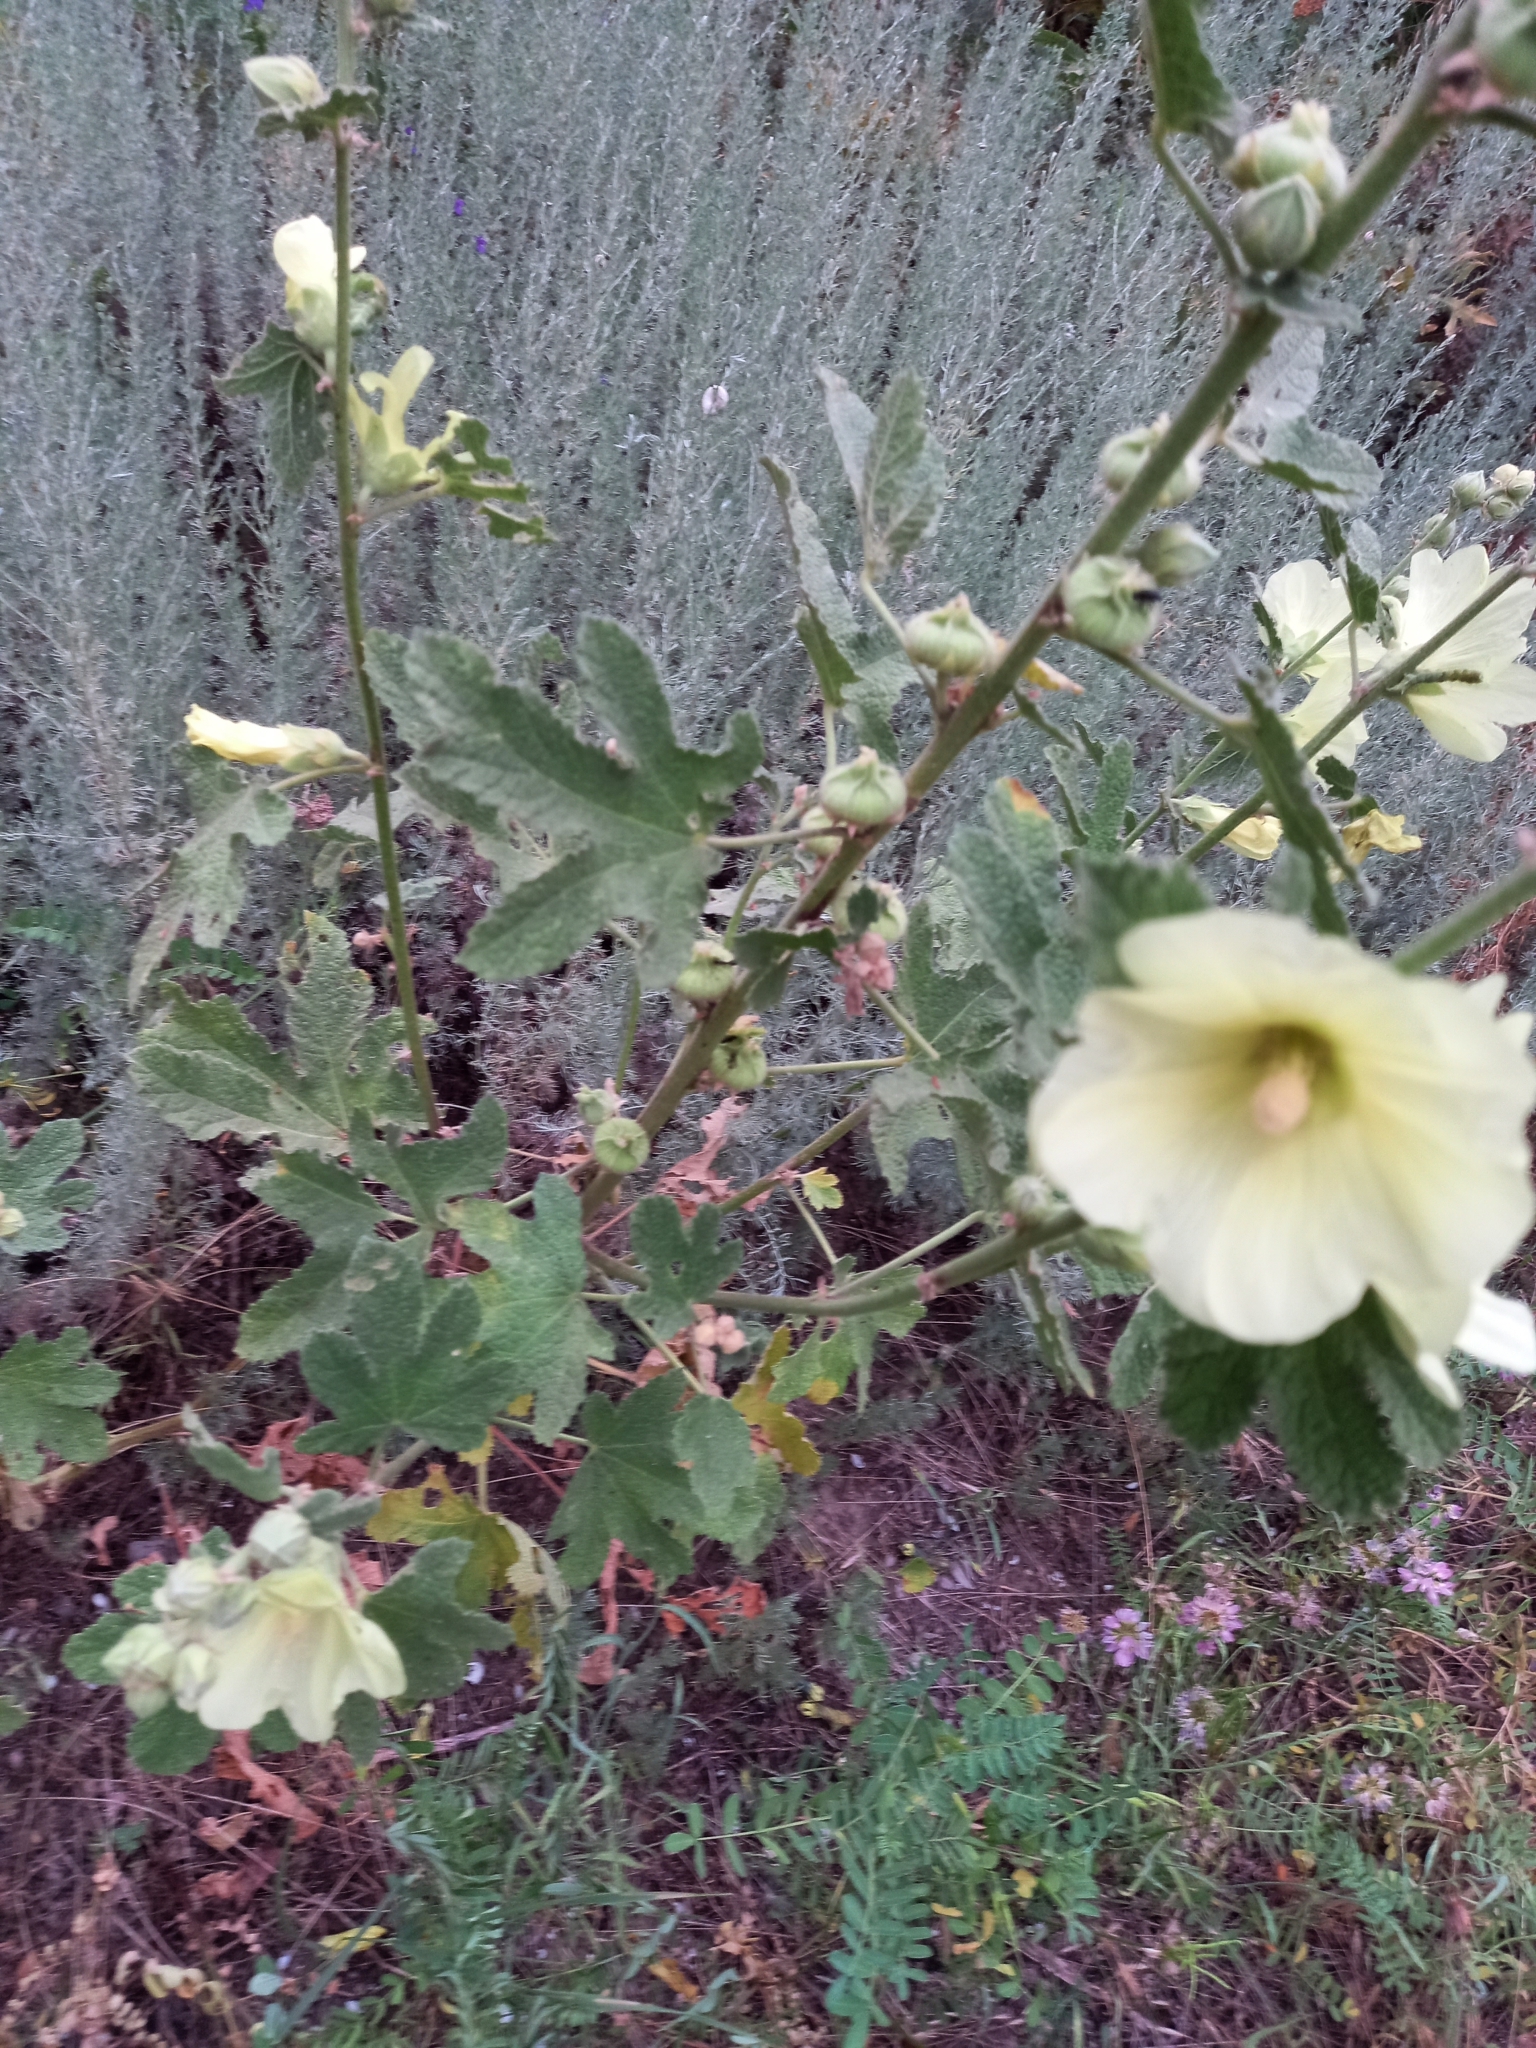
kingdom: Plantae
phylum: Tracheophyta
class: Magnoliopsida
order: Malvales
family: Malvaceae
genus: Alcea
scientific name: Alcea rugosa
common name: Russian hollyhock
